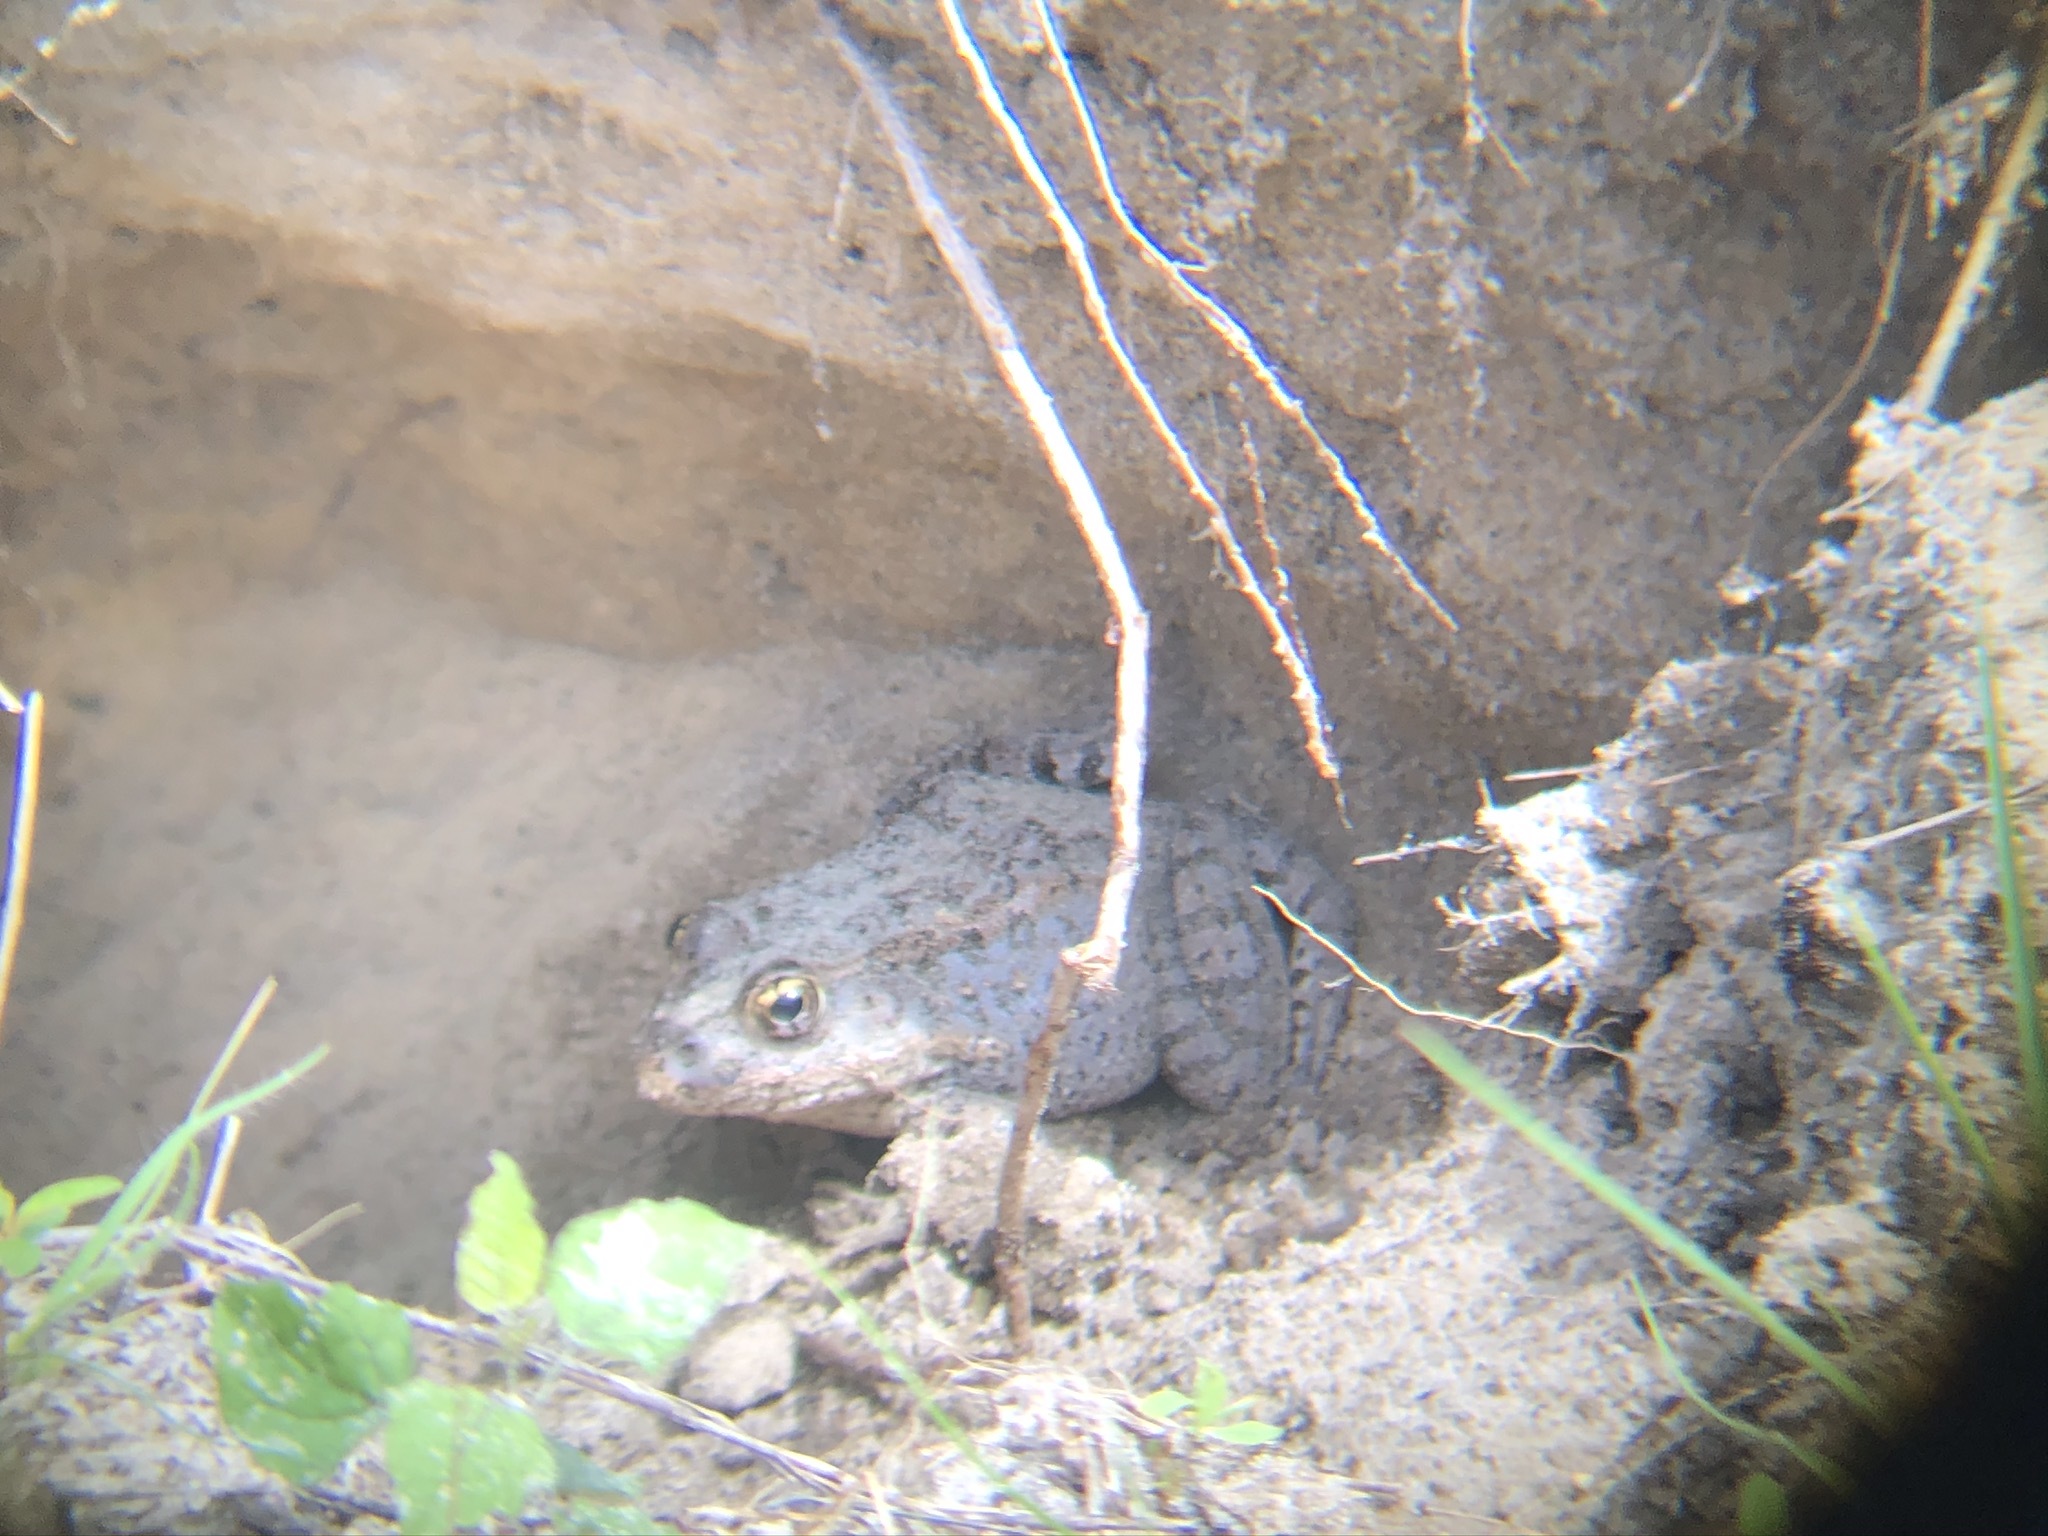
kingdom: Animalia
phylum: Chordata
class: Amphibia
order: Anura
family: Ranidae
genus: Lithobates
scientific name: Lithobates capito
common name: Gopher frog
